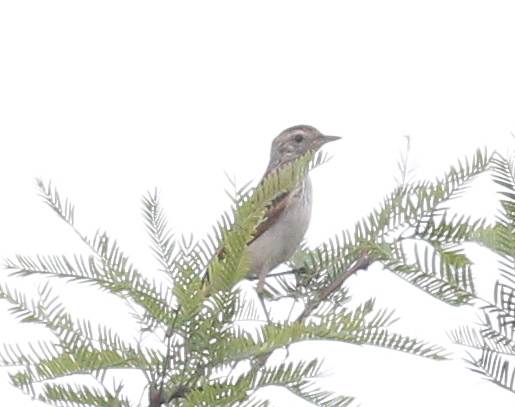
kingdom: Animalia
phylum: Chordata
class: Aves
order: Passeriformes
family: Tyrannidae
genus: Hymenops
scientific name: Hymenops perspicillatus
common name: Spectacled tyrant
